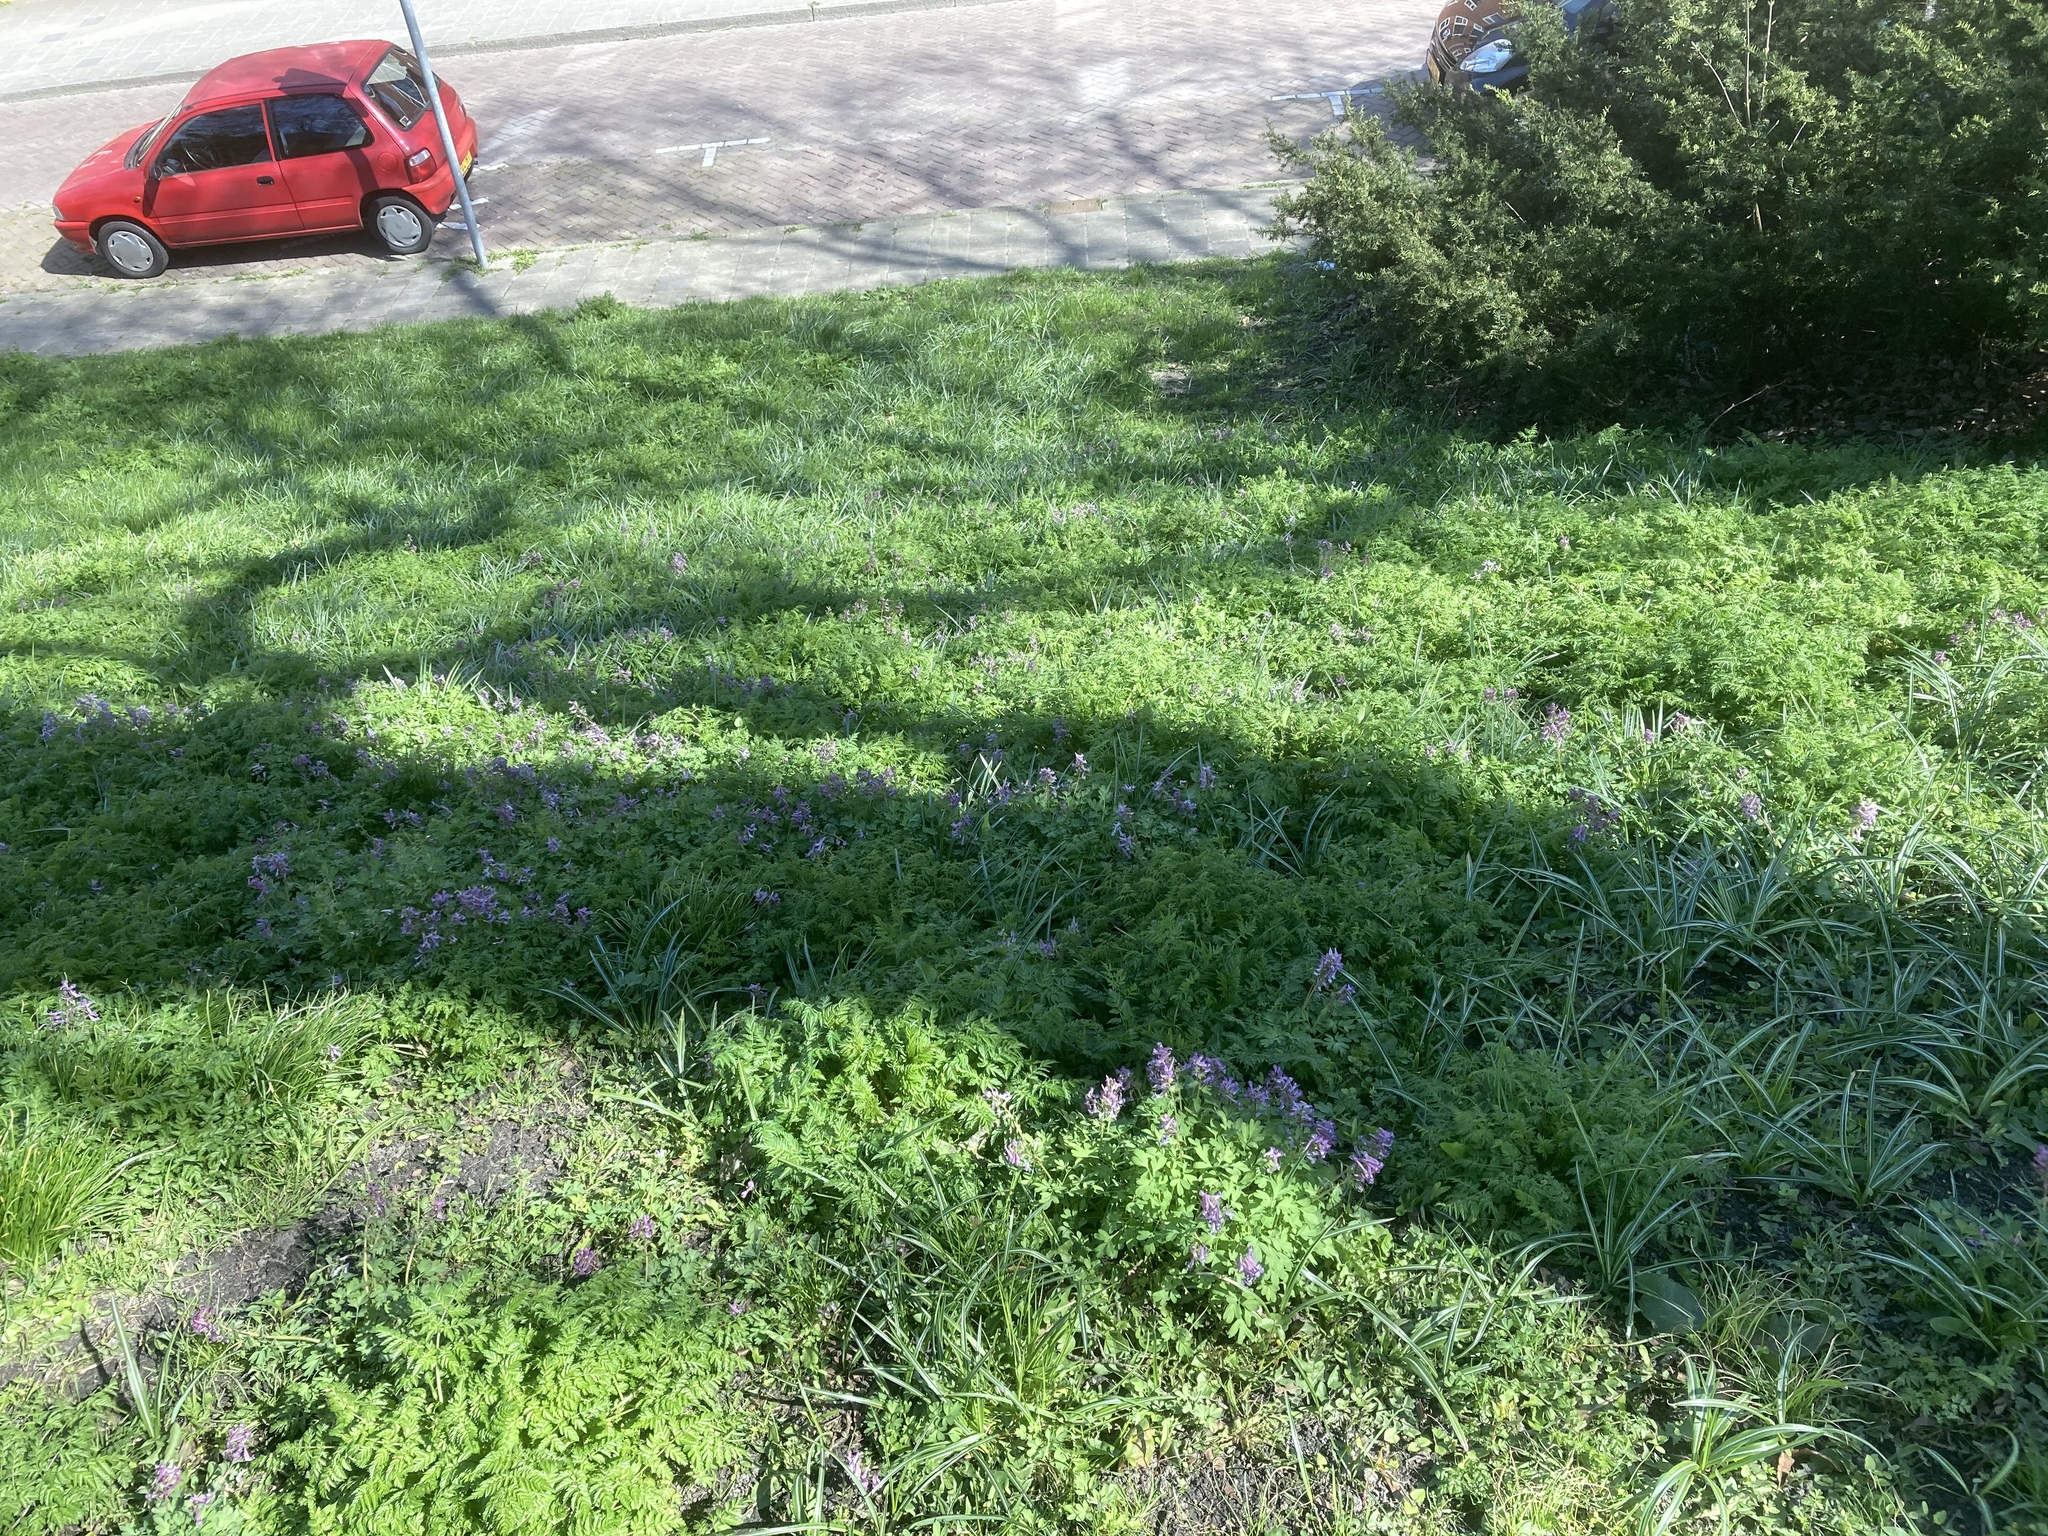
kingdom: Plantae
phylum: Tracheophyta
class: Magnoliopsida
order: Ranunculales
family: Papaveraceae
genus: Corydalis
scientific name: Corydalis solida
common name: Bird-in-a-bush
